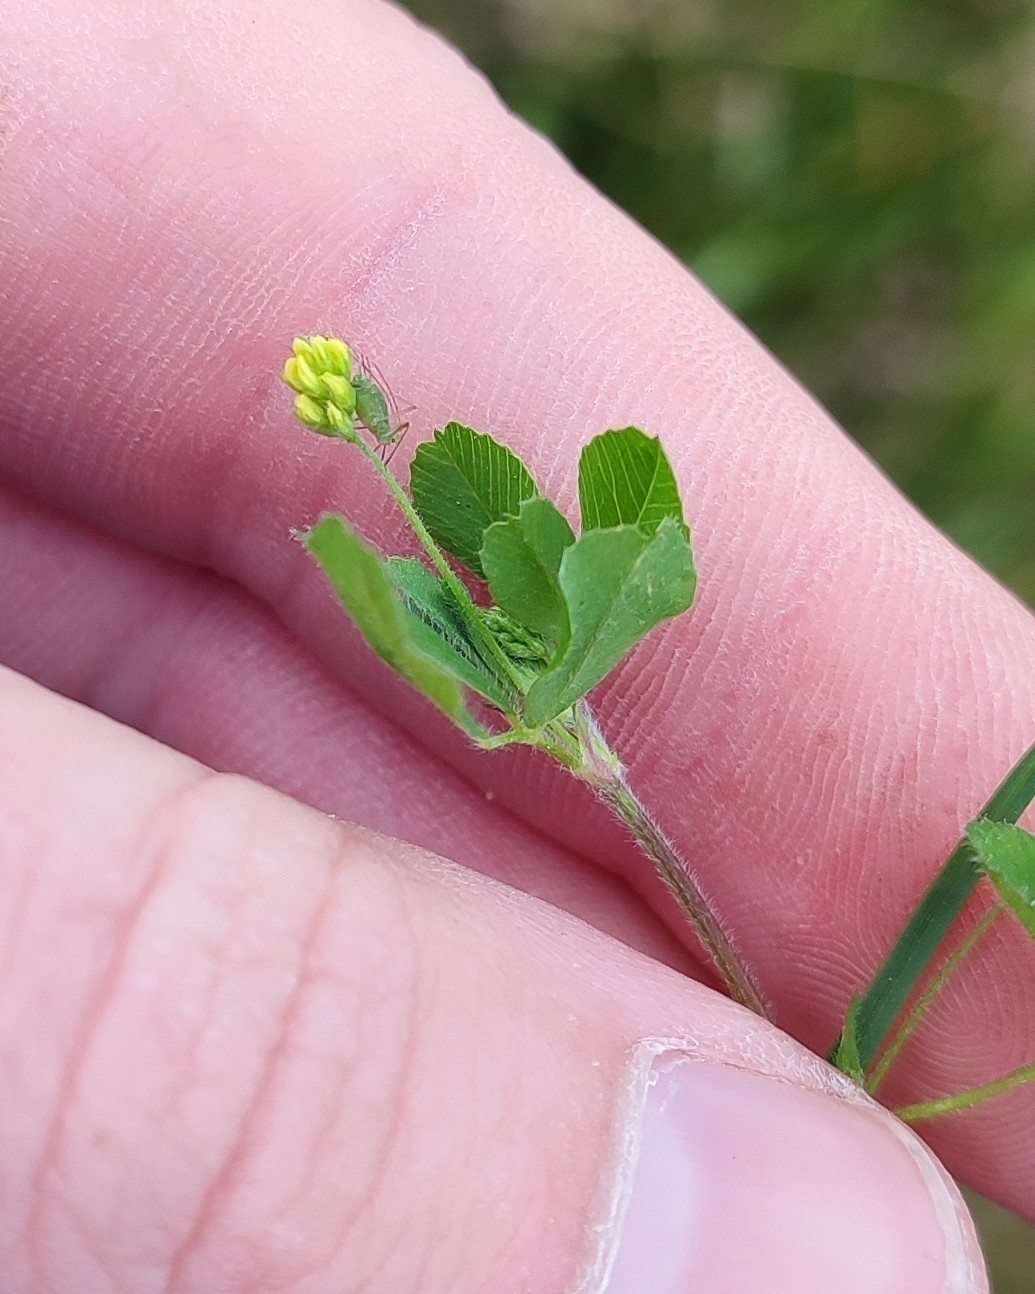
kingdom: Plantae
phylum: Tracheophyta
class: Magnoliopsida
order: Fabales
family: Fabaceae
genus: Medicago
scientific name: Medicago lupulina
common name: Black medick
